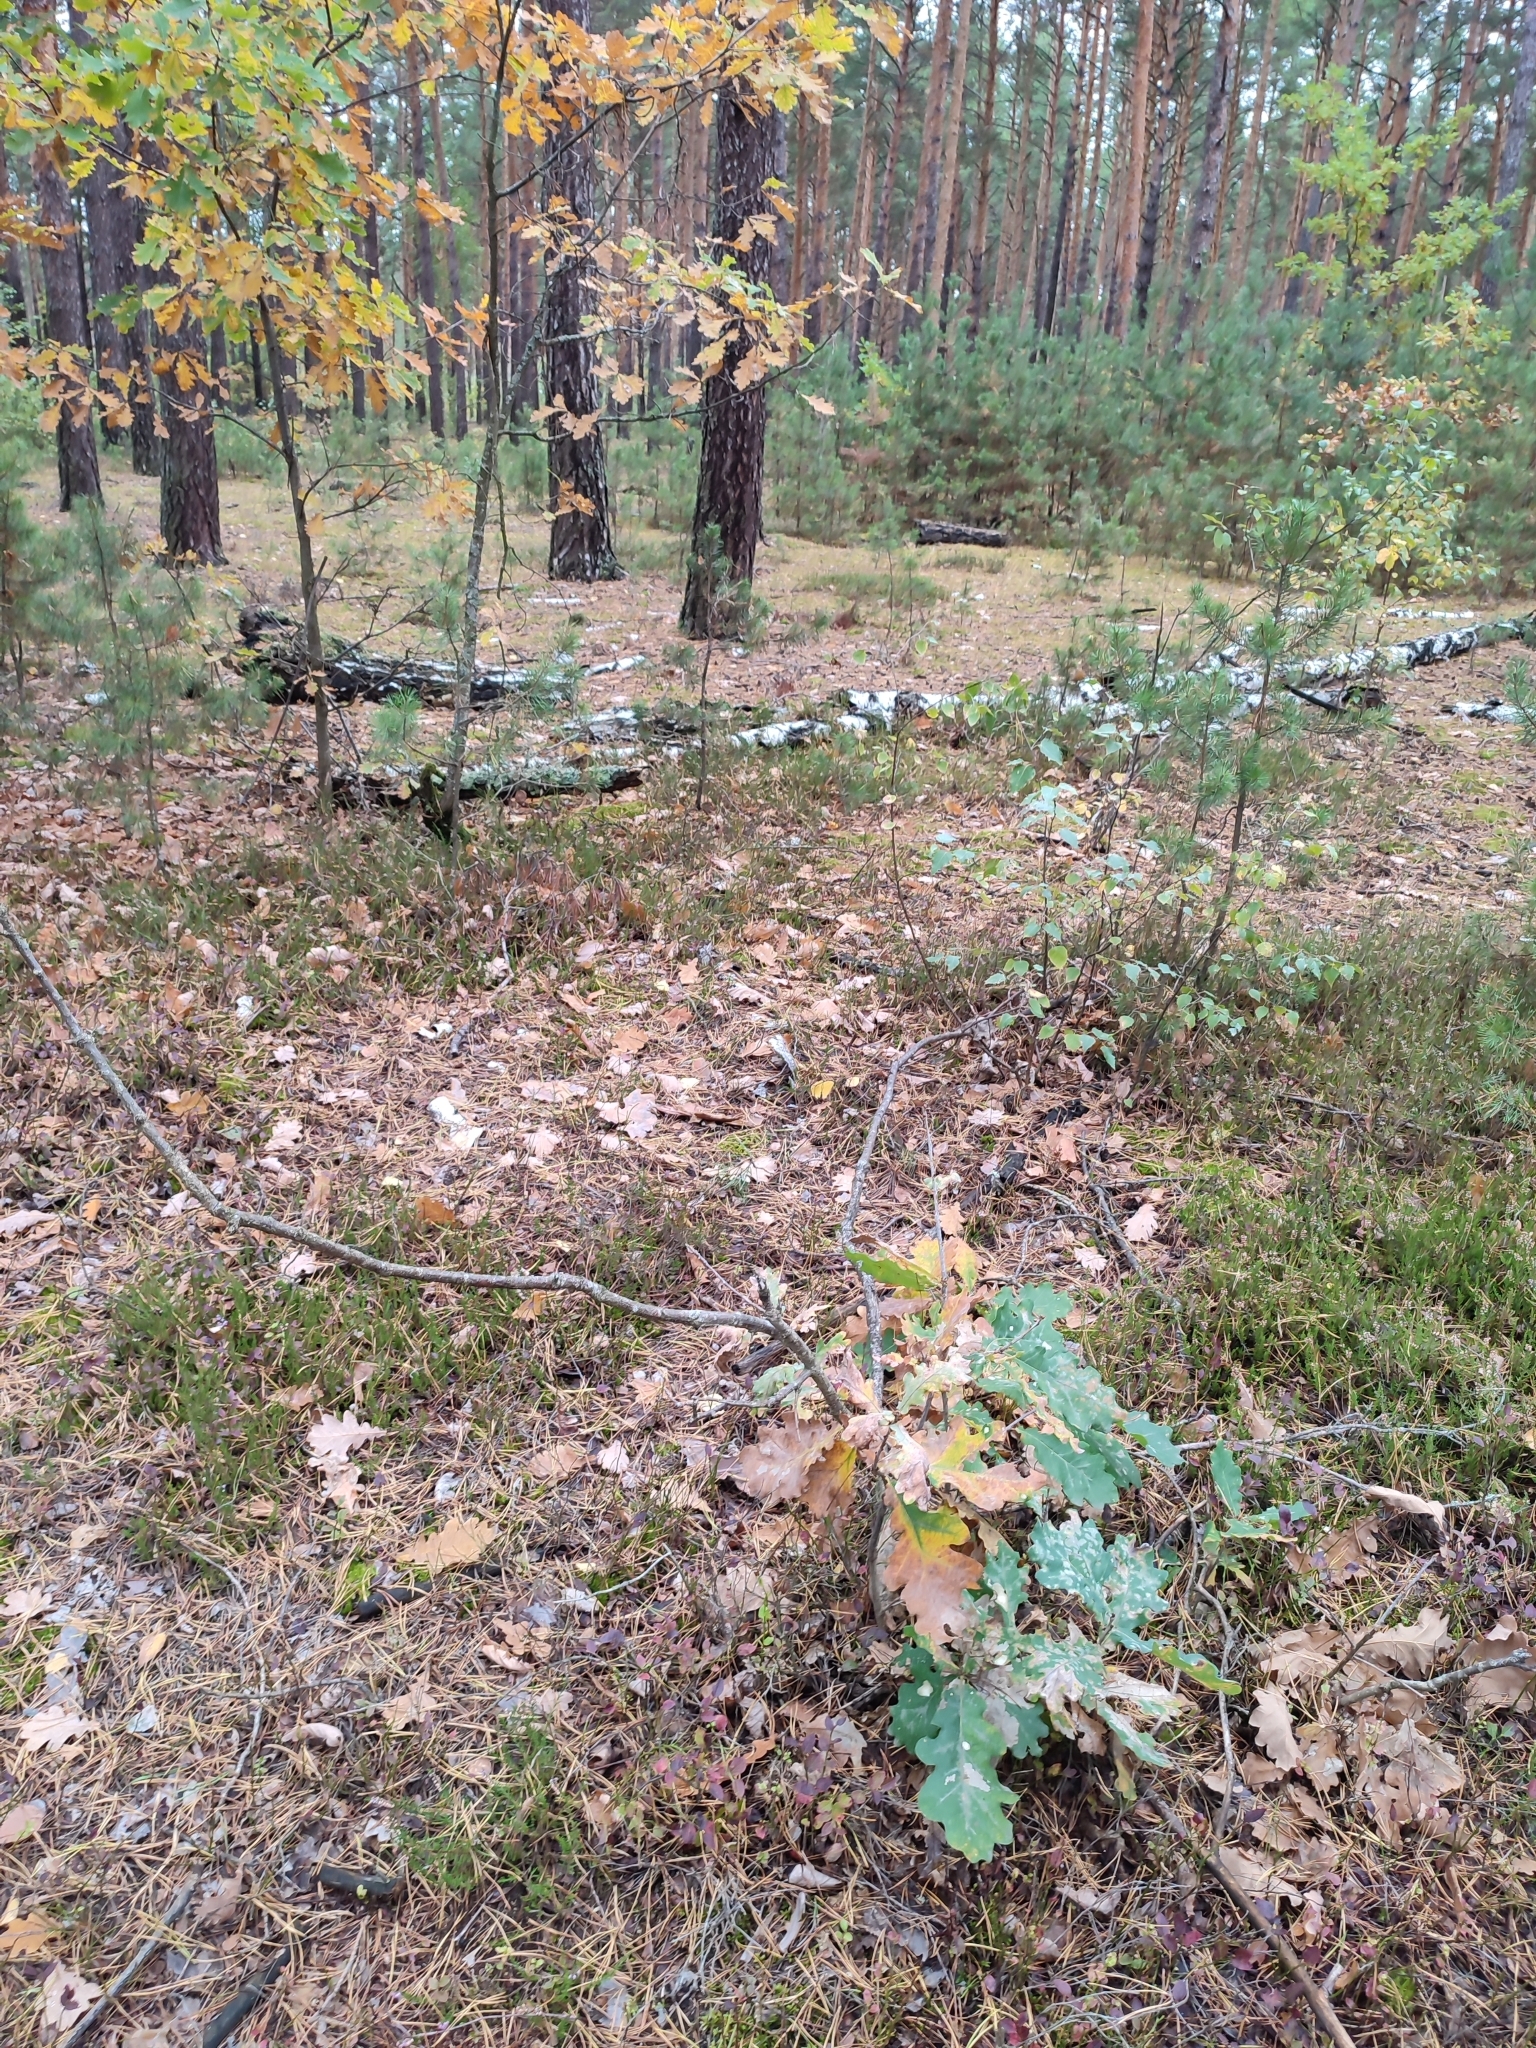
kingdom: Plantae
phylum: Tracheophyta
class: Magnoliopsida
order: Fagales
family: Fagaceae
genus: Quercus
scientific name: Quercus robur
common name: Pedunculate oak
